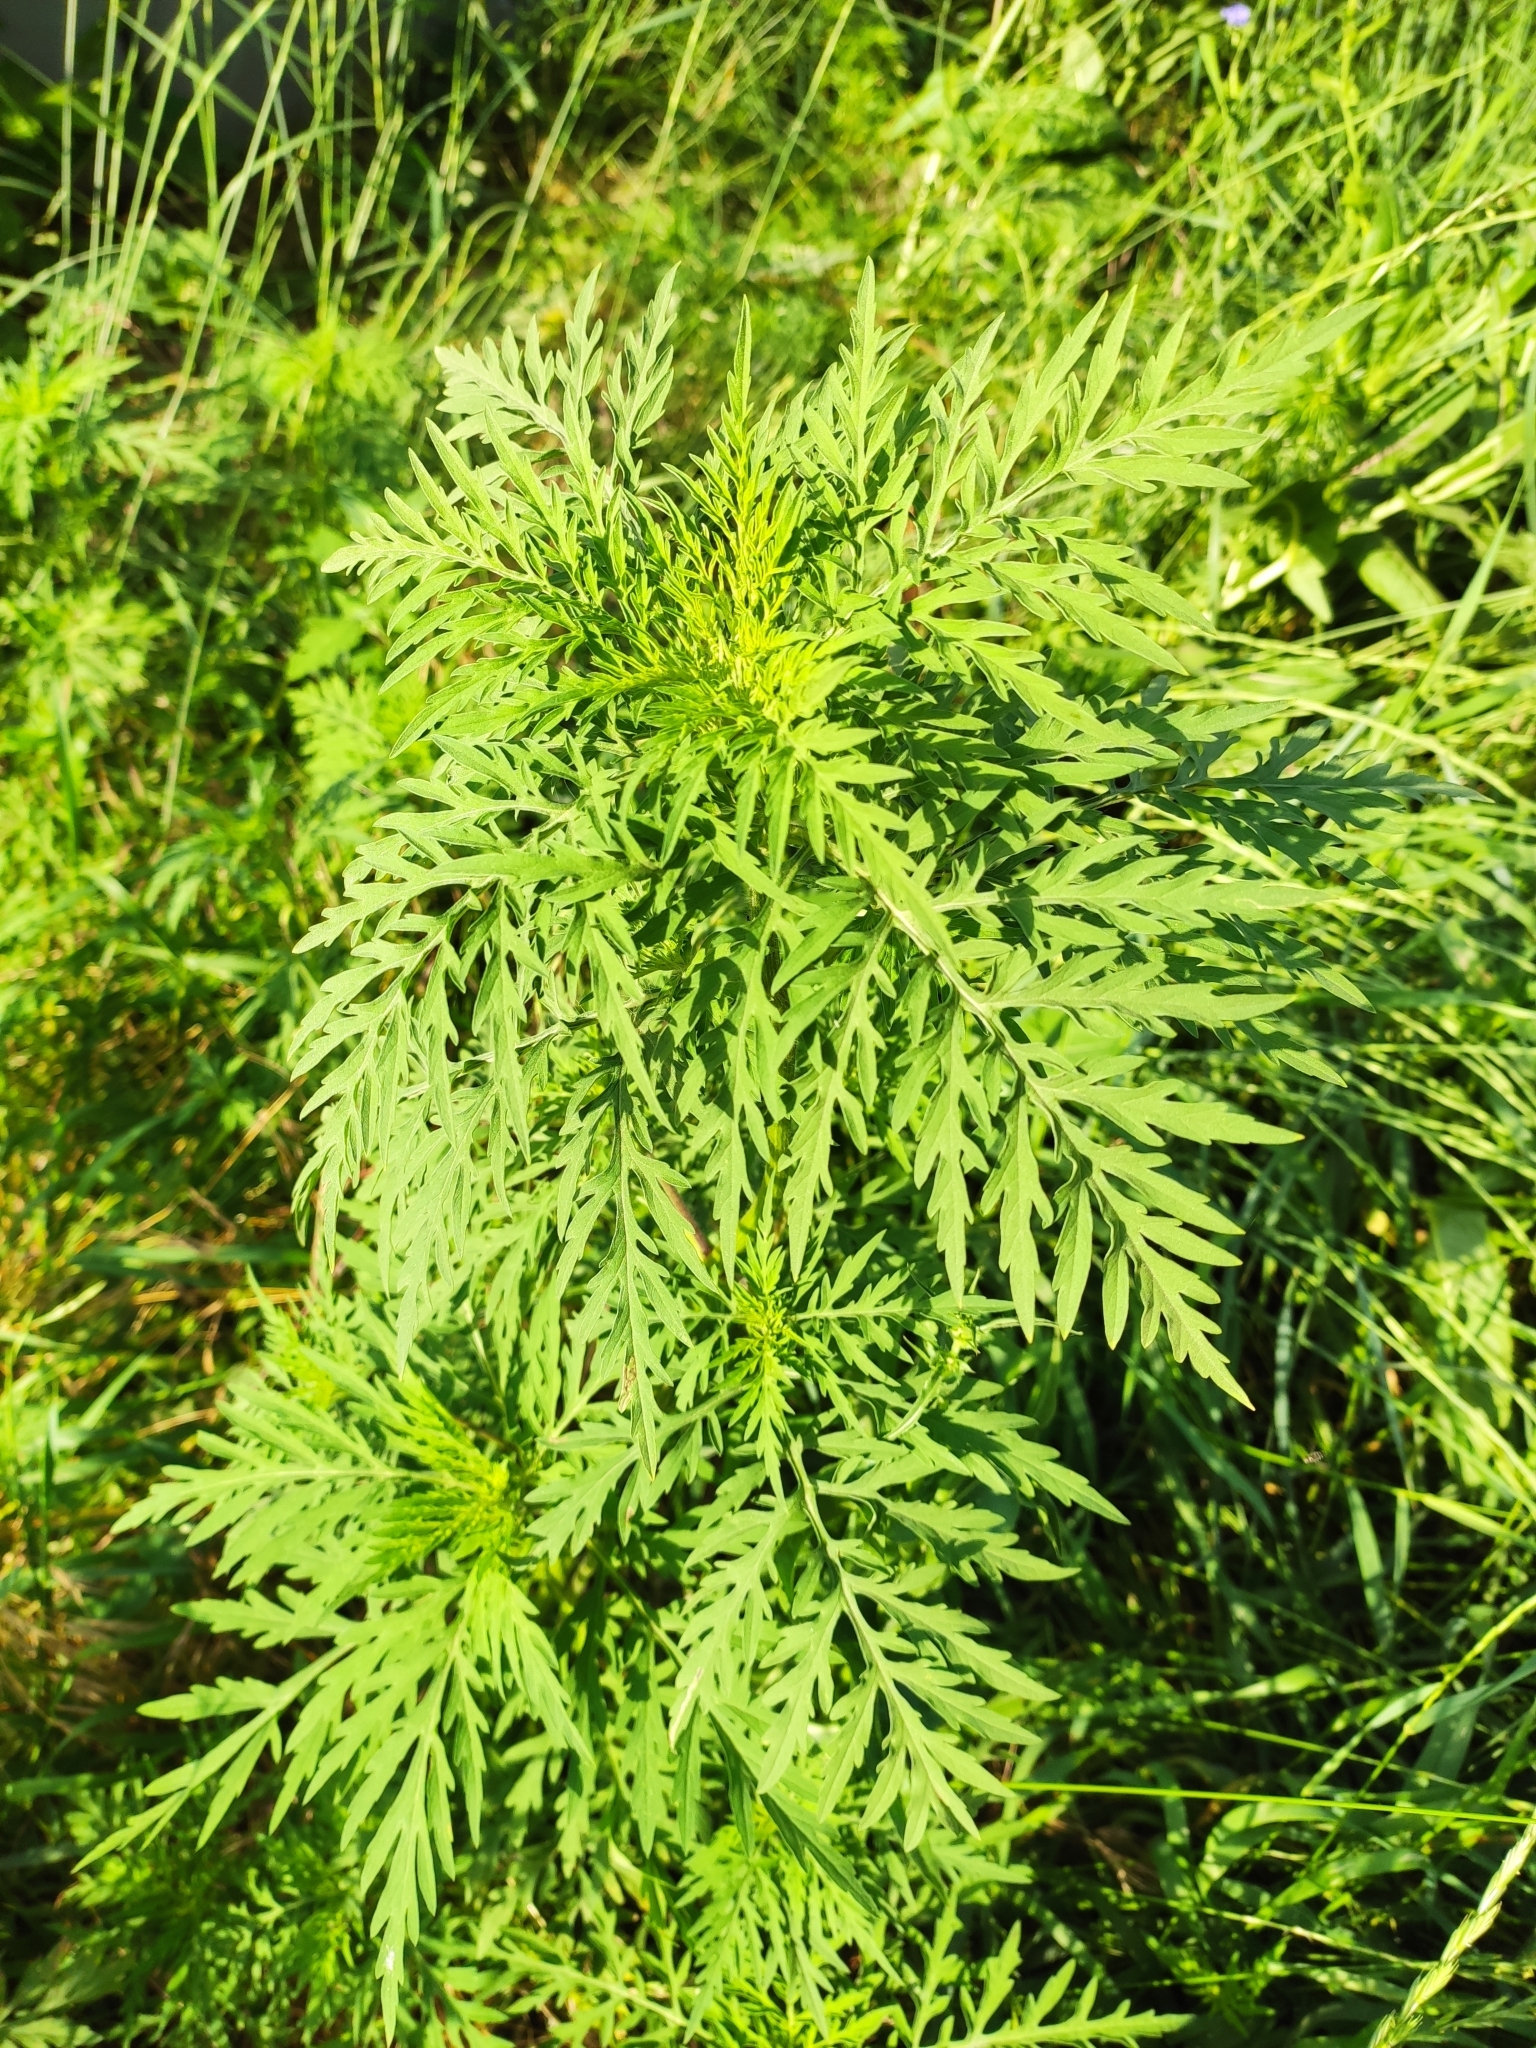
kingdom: Plantae
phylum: Tracheophyta
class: Magnoliopsida
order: Asterales
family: Asteraceae
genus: Ambrosia
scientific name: Ambrosia artemisiifolia
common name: Annual ragweed
